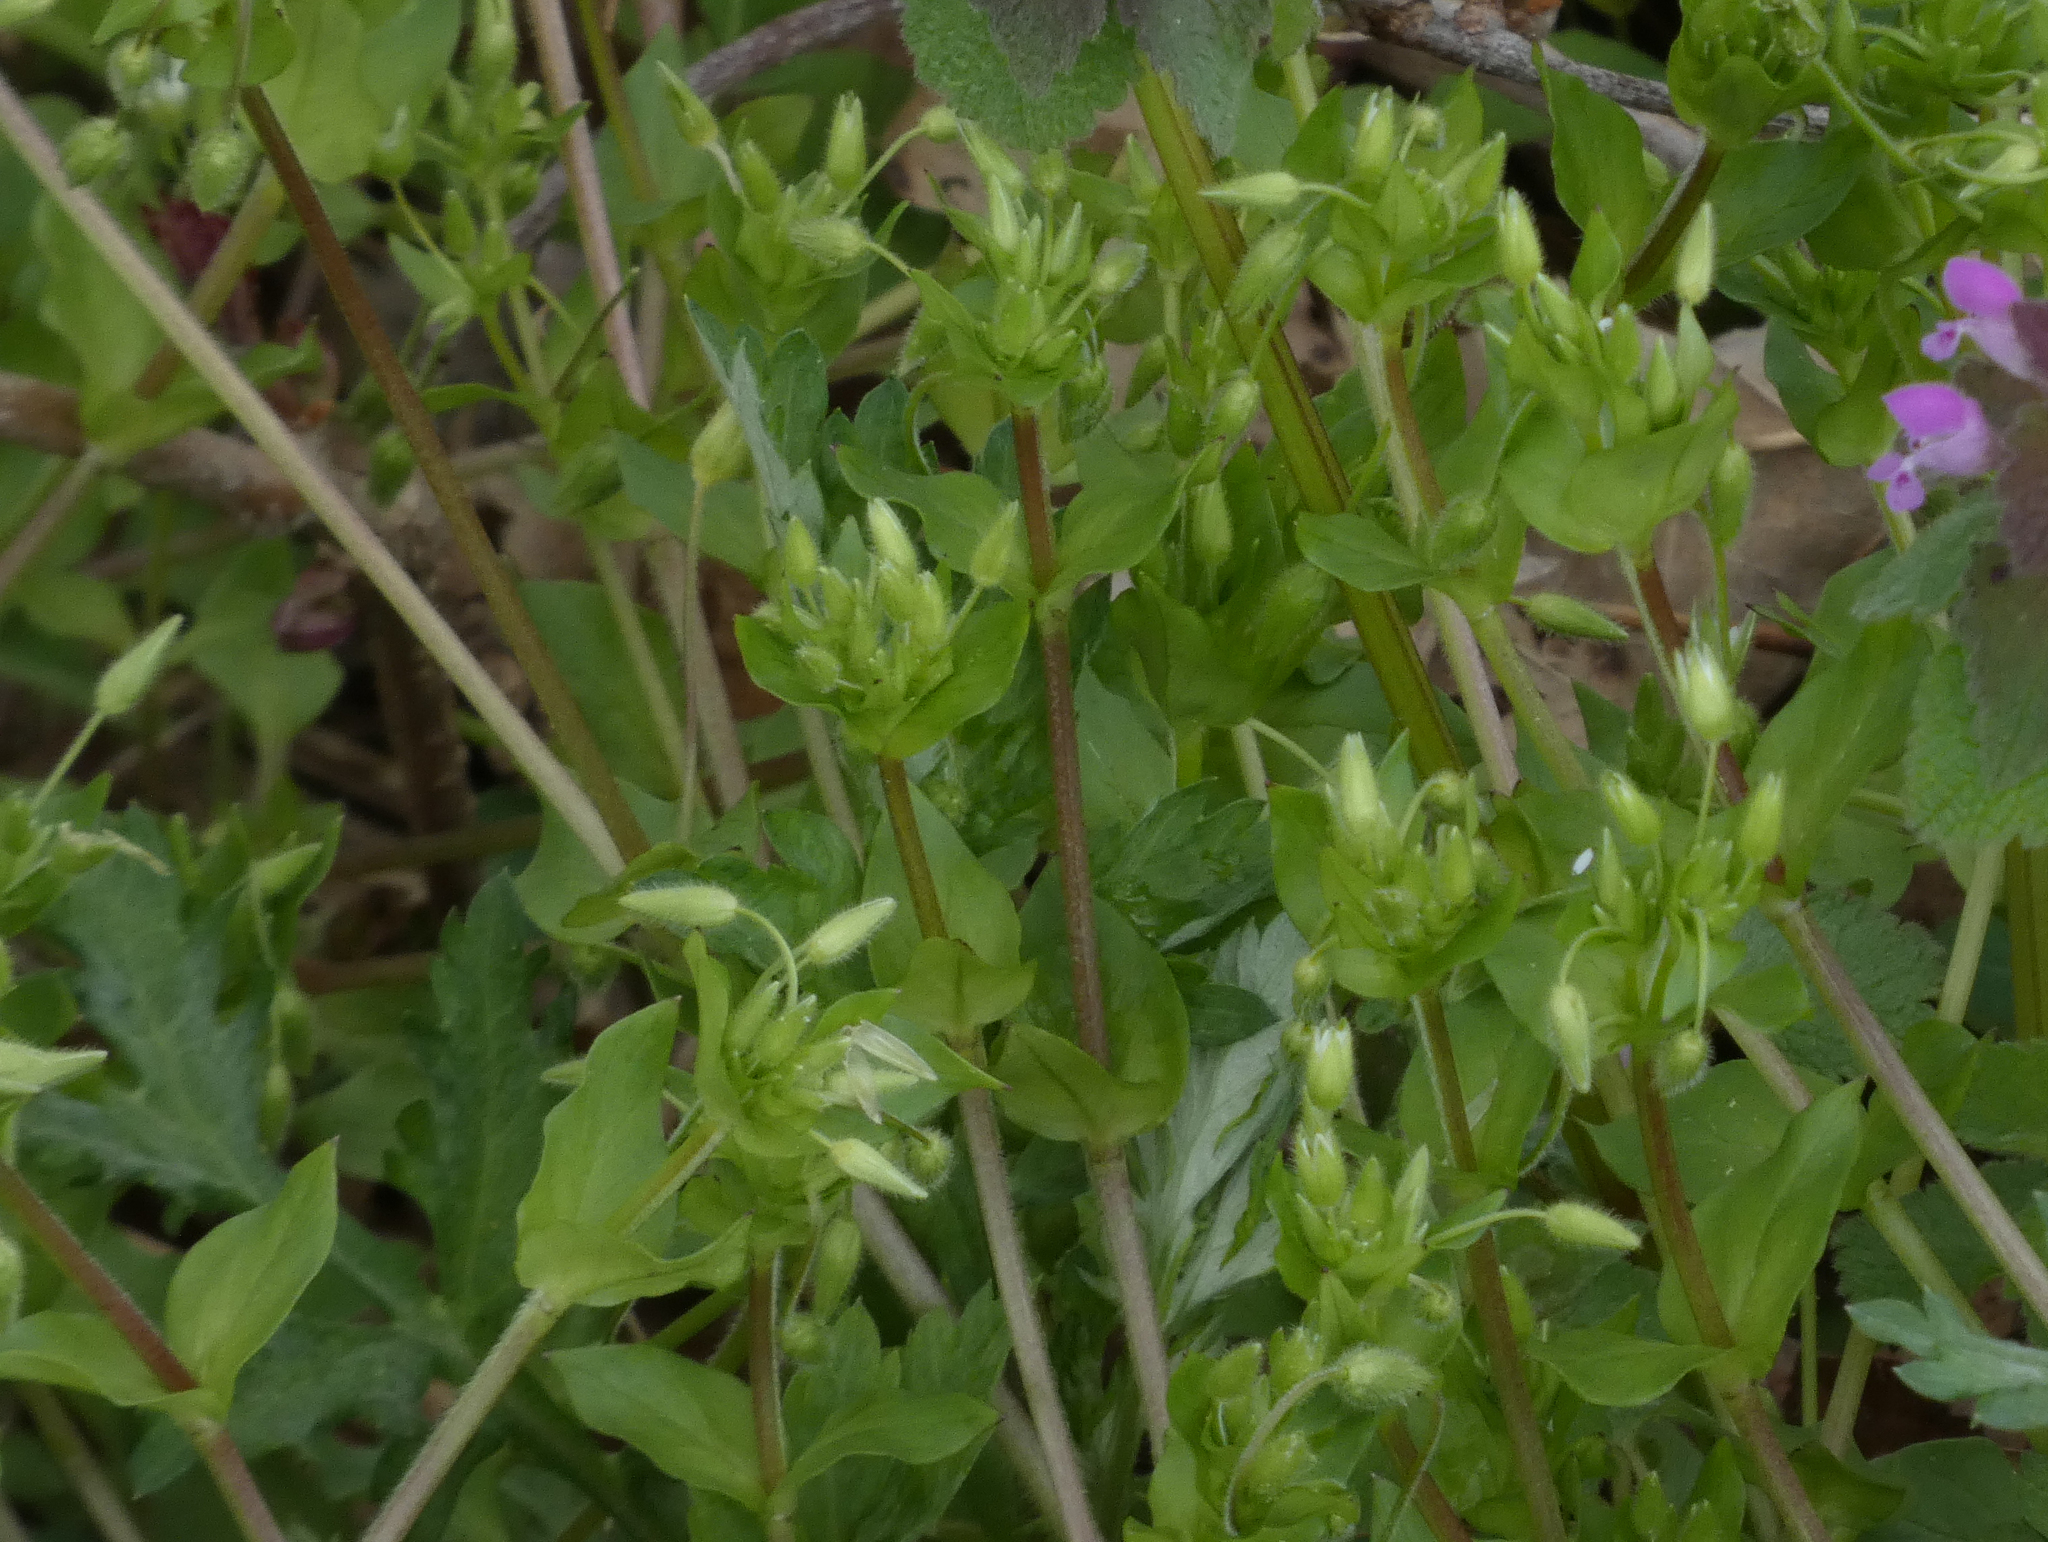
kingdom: Plantae
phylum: Tracheophyta
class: Magnoliopsida
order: Caryophyllales
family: Caryophyllaceae
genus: Stellaria
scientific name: Stellaria media
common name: Common chickweed
